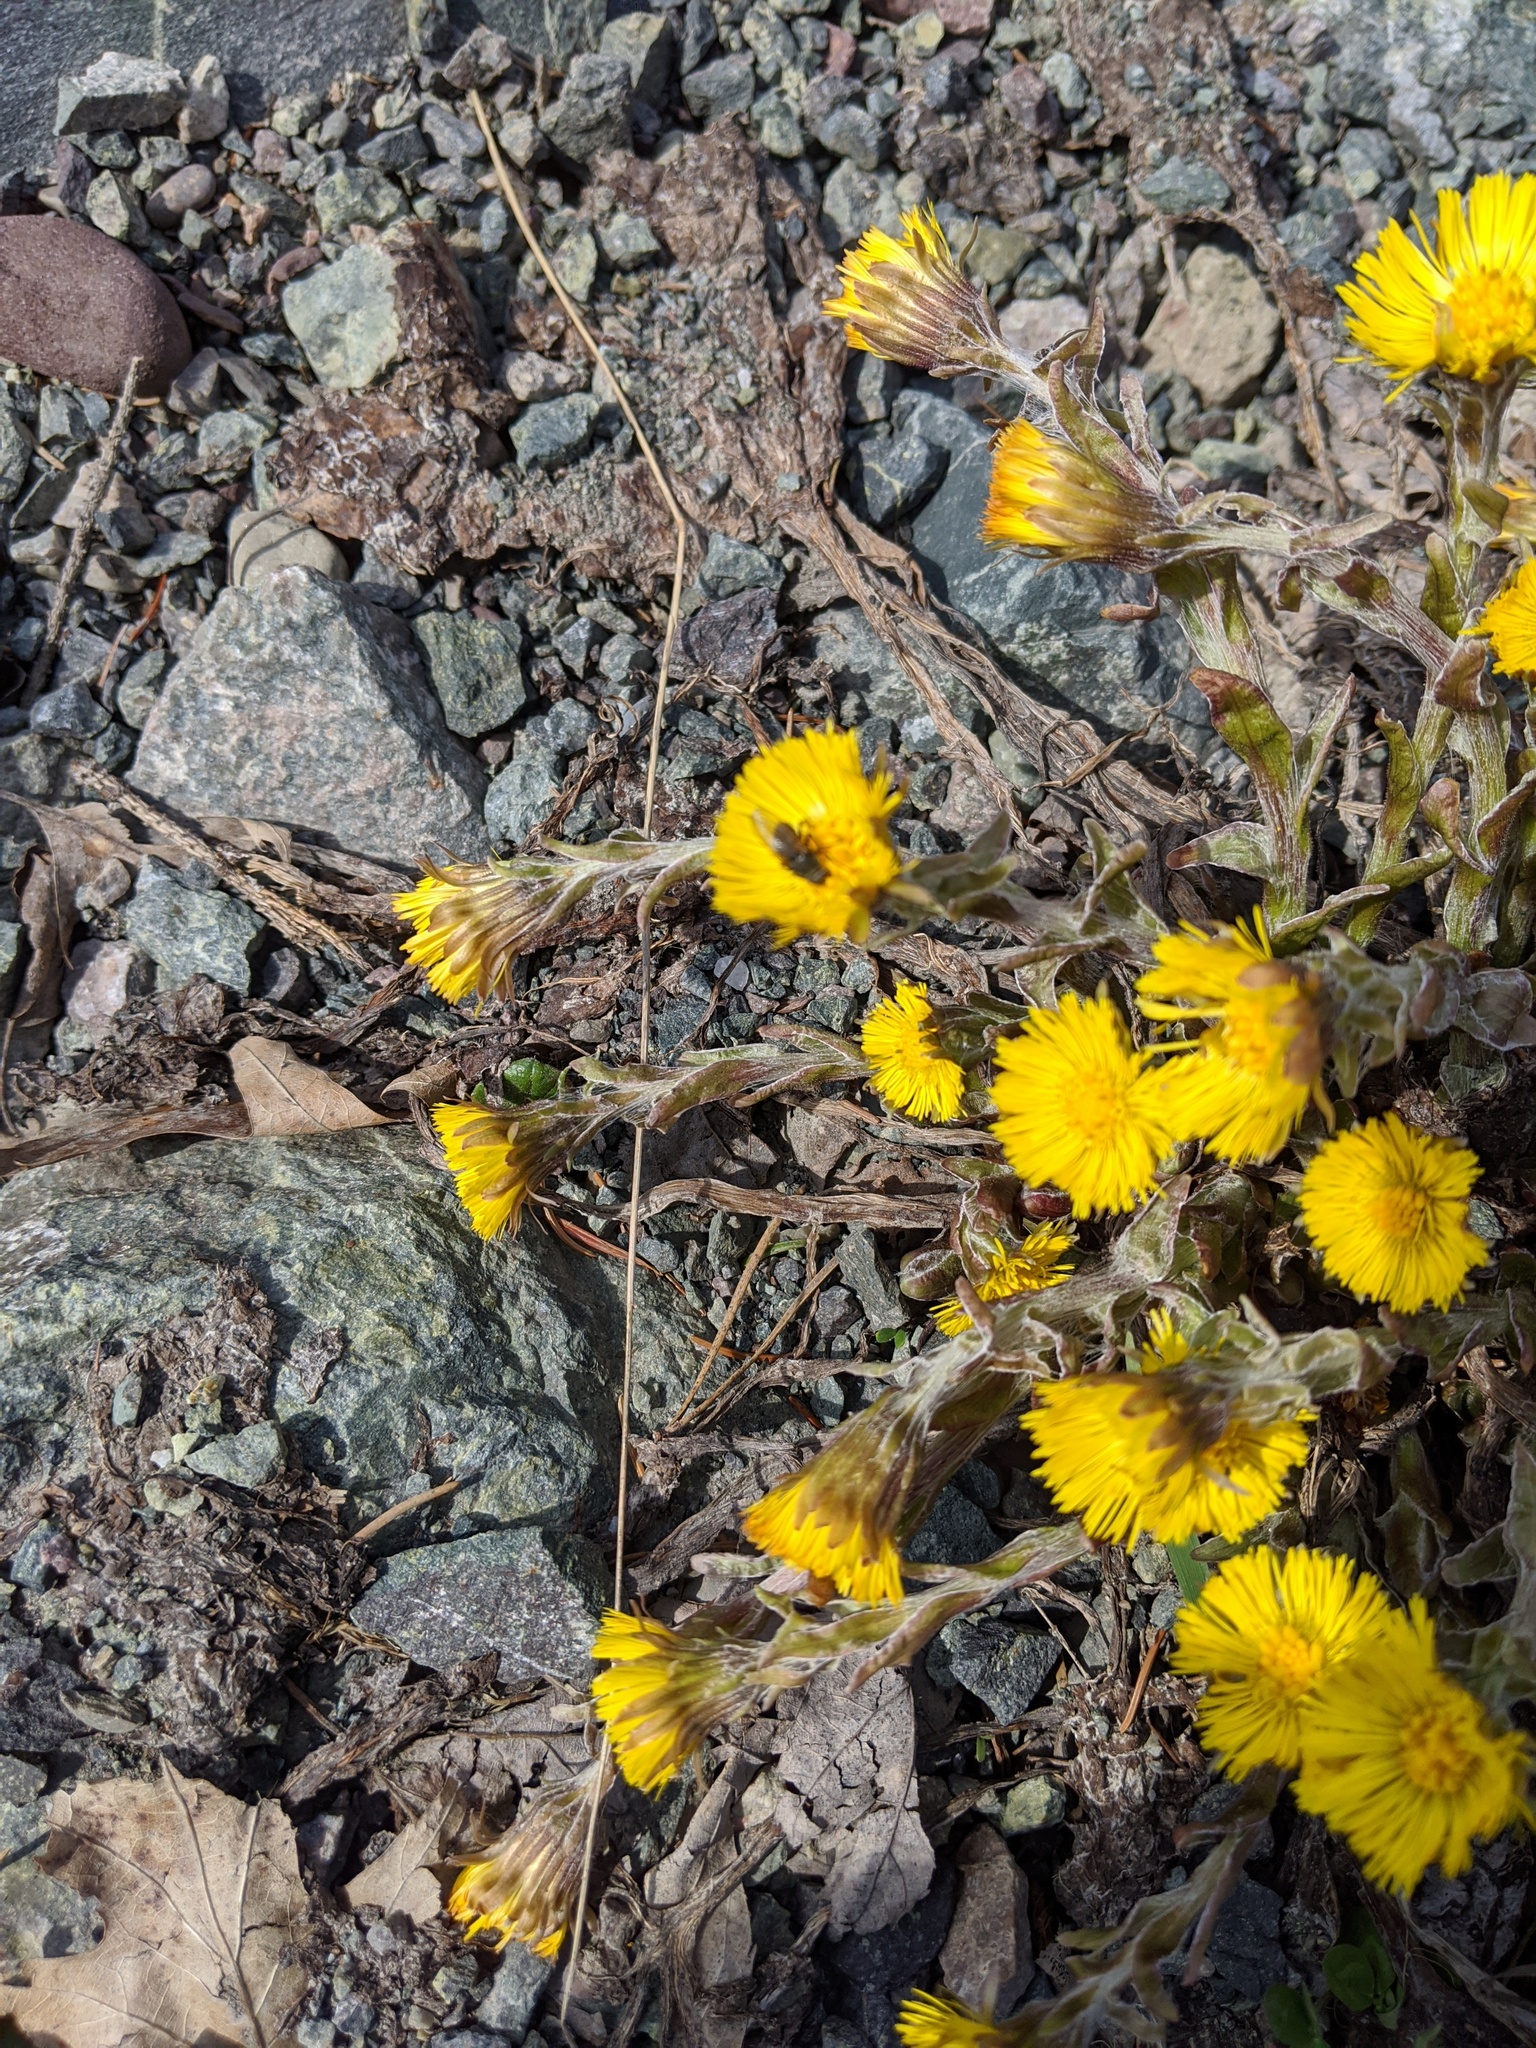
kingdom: Plantae
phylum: Tracheophyta
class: Magnoliopsida
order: Asterales
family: Asteraceae
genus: Tussilago
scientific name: Tussilago farfara
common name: Coltsfoot
